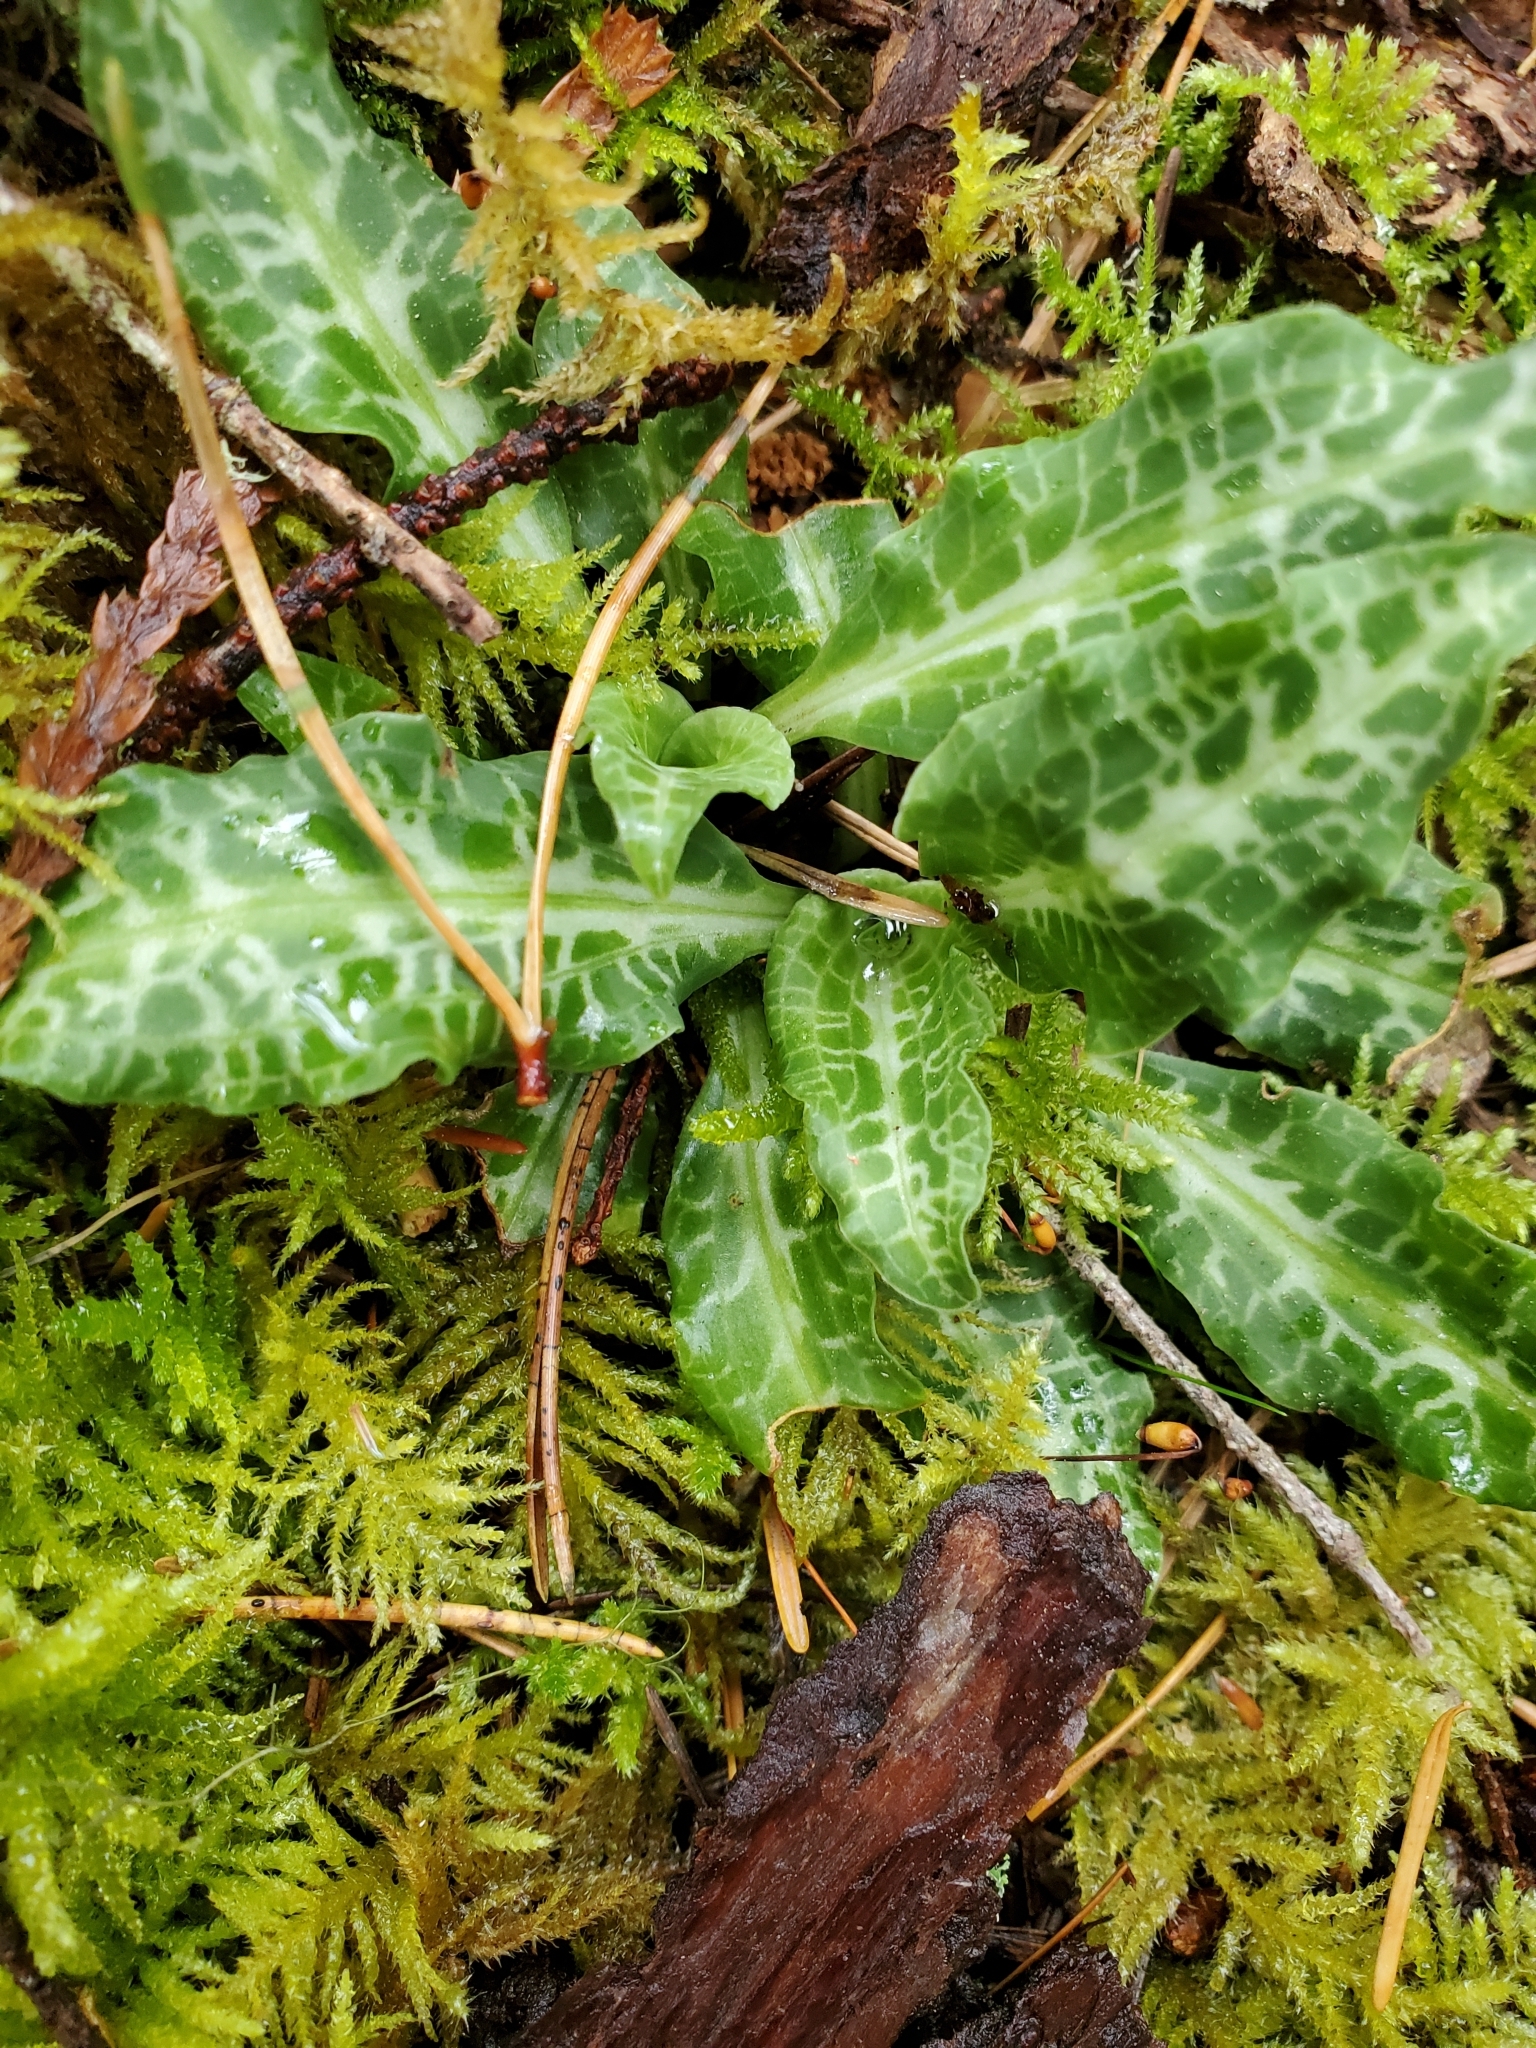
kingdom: Plantae
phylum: Tracheophyta
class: Liliopsida
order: Asparagales
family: Orchidaceae
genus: Goodyera
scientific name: Goodyera oblongifolia
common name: Giant rattlesnake-plantain
